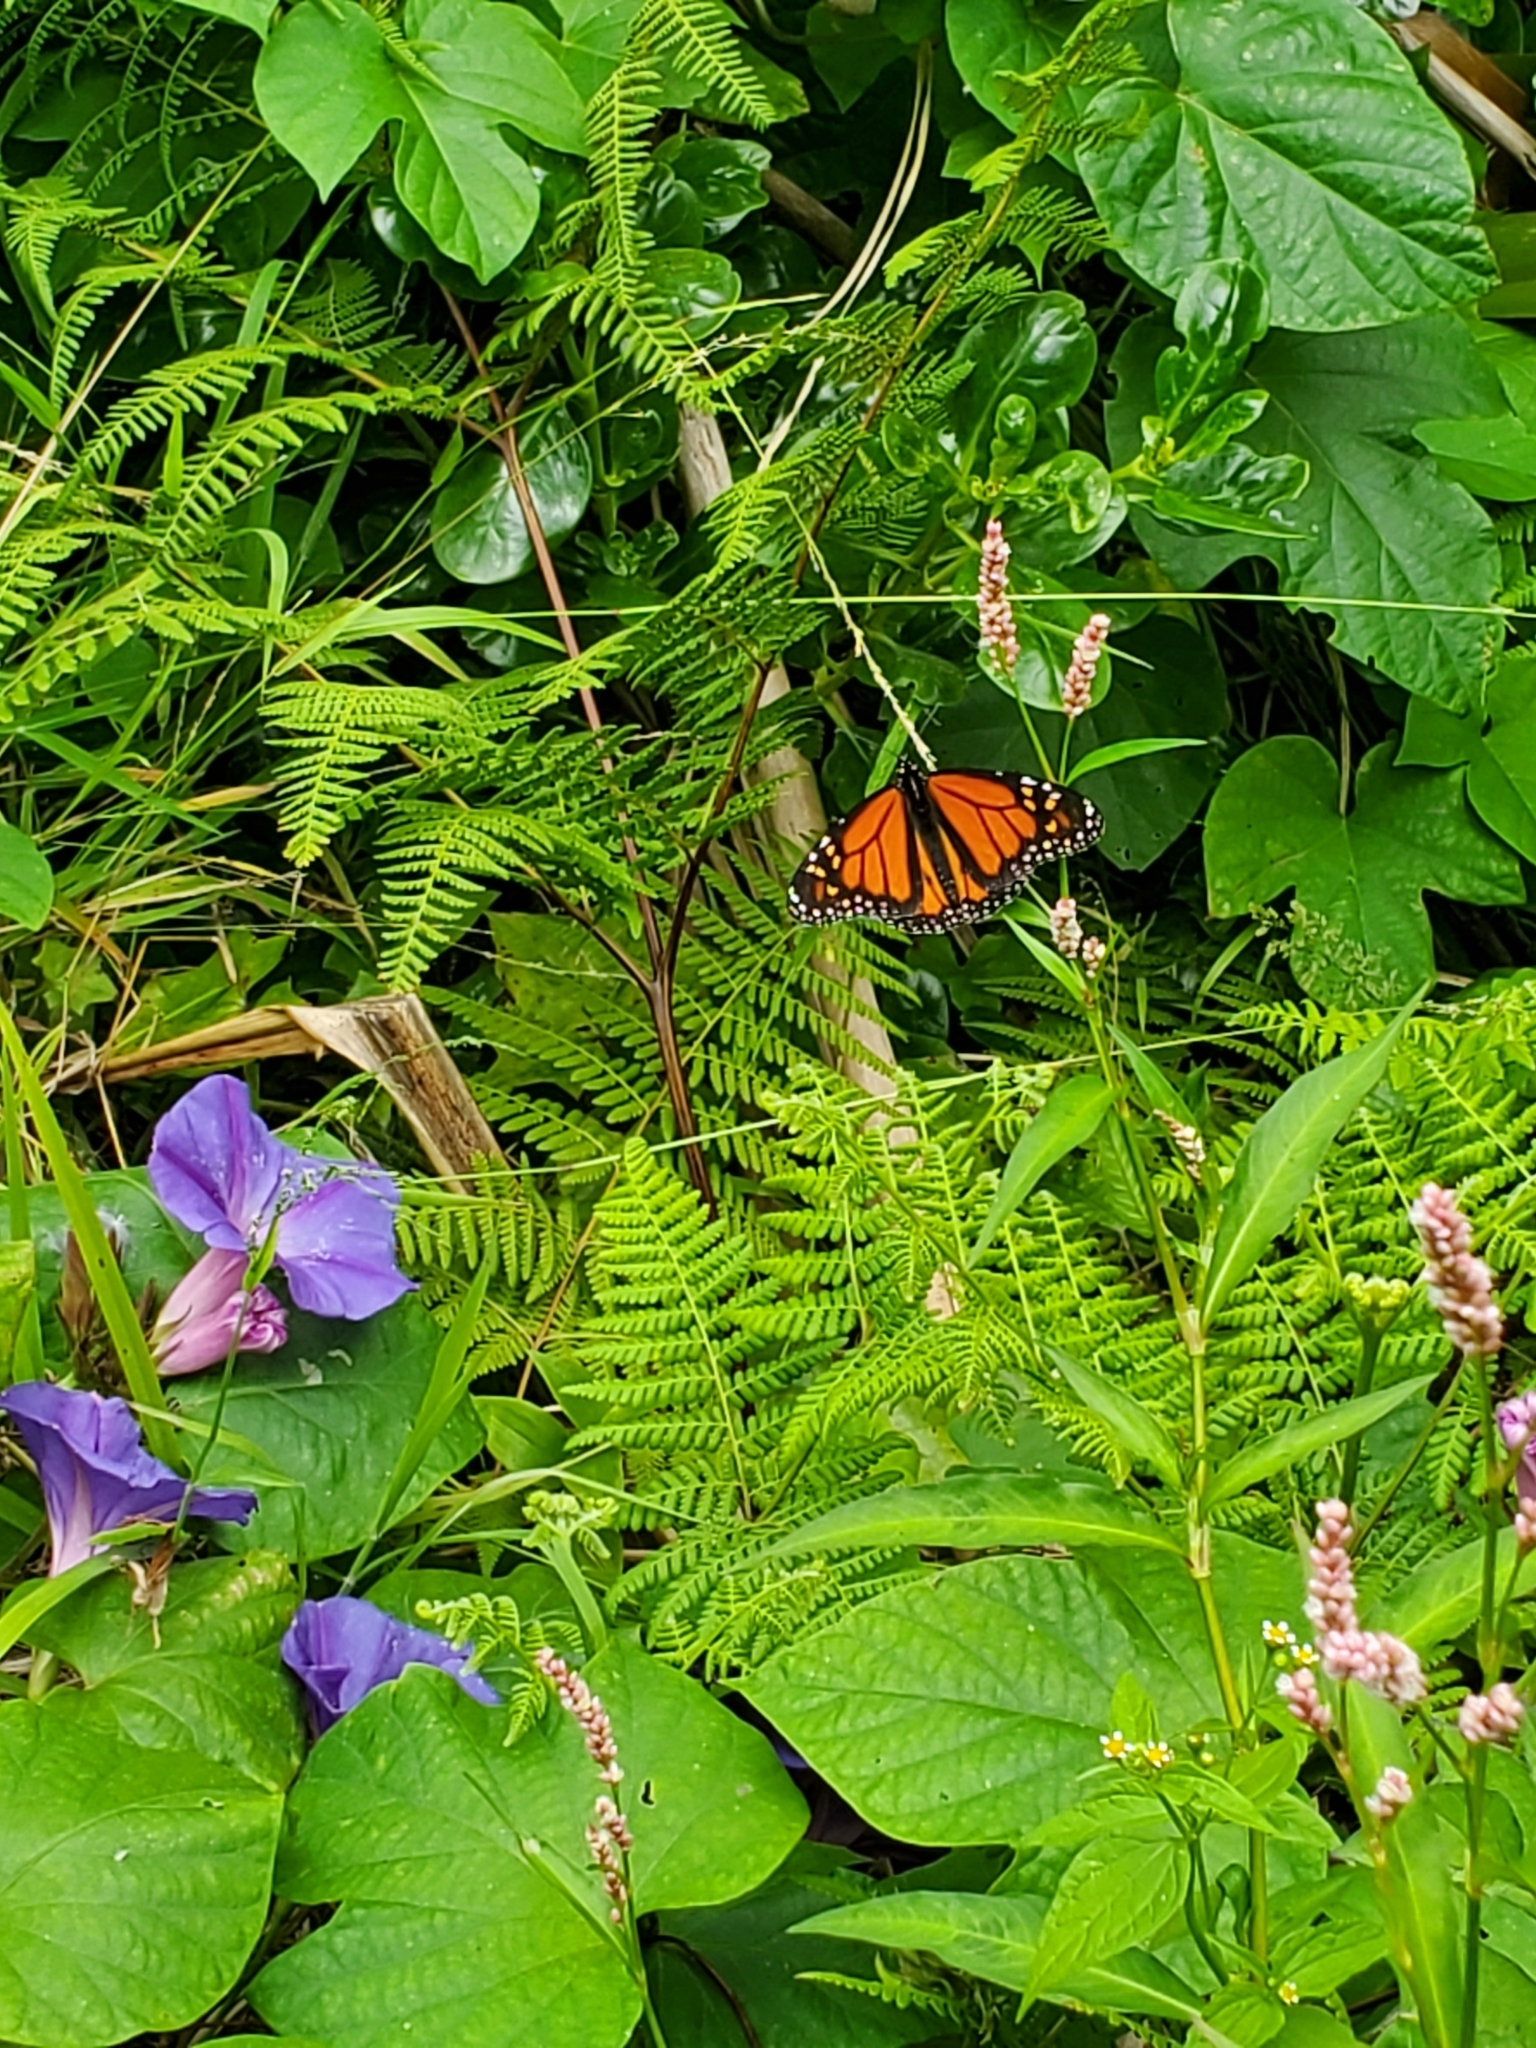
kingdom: Animalia
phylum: Arthropoda
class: Insecta
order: Lepidoptera
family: Nymphalidae
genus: Danaus
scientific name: Danaus plexippus
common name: Monarch
